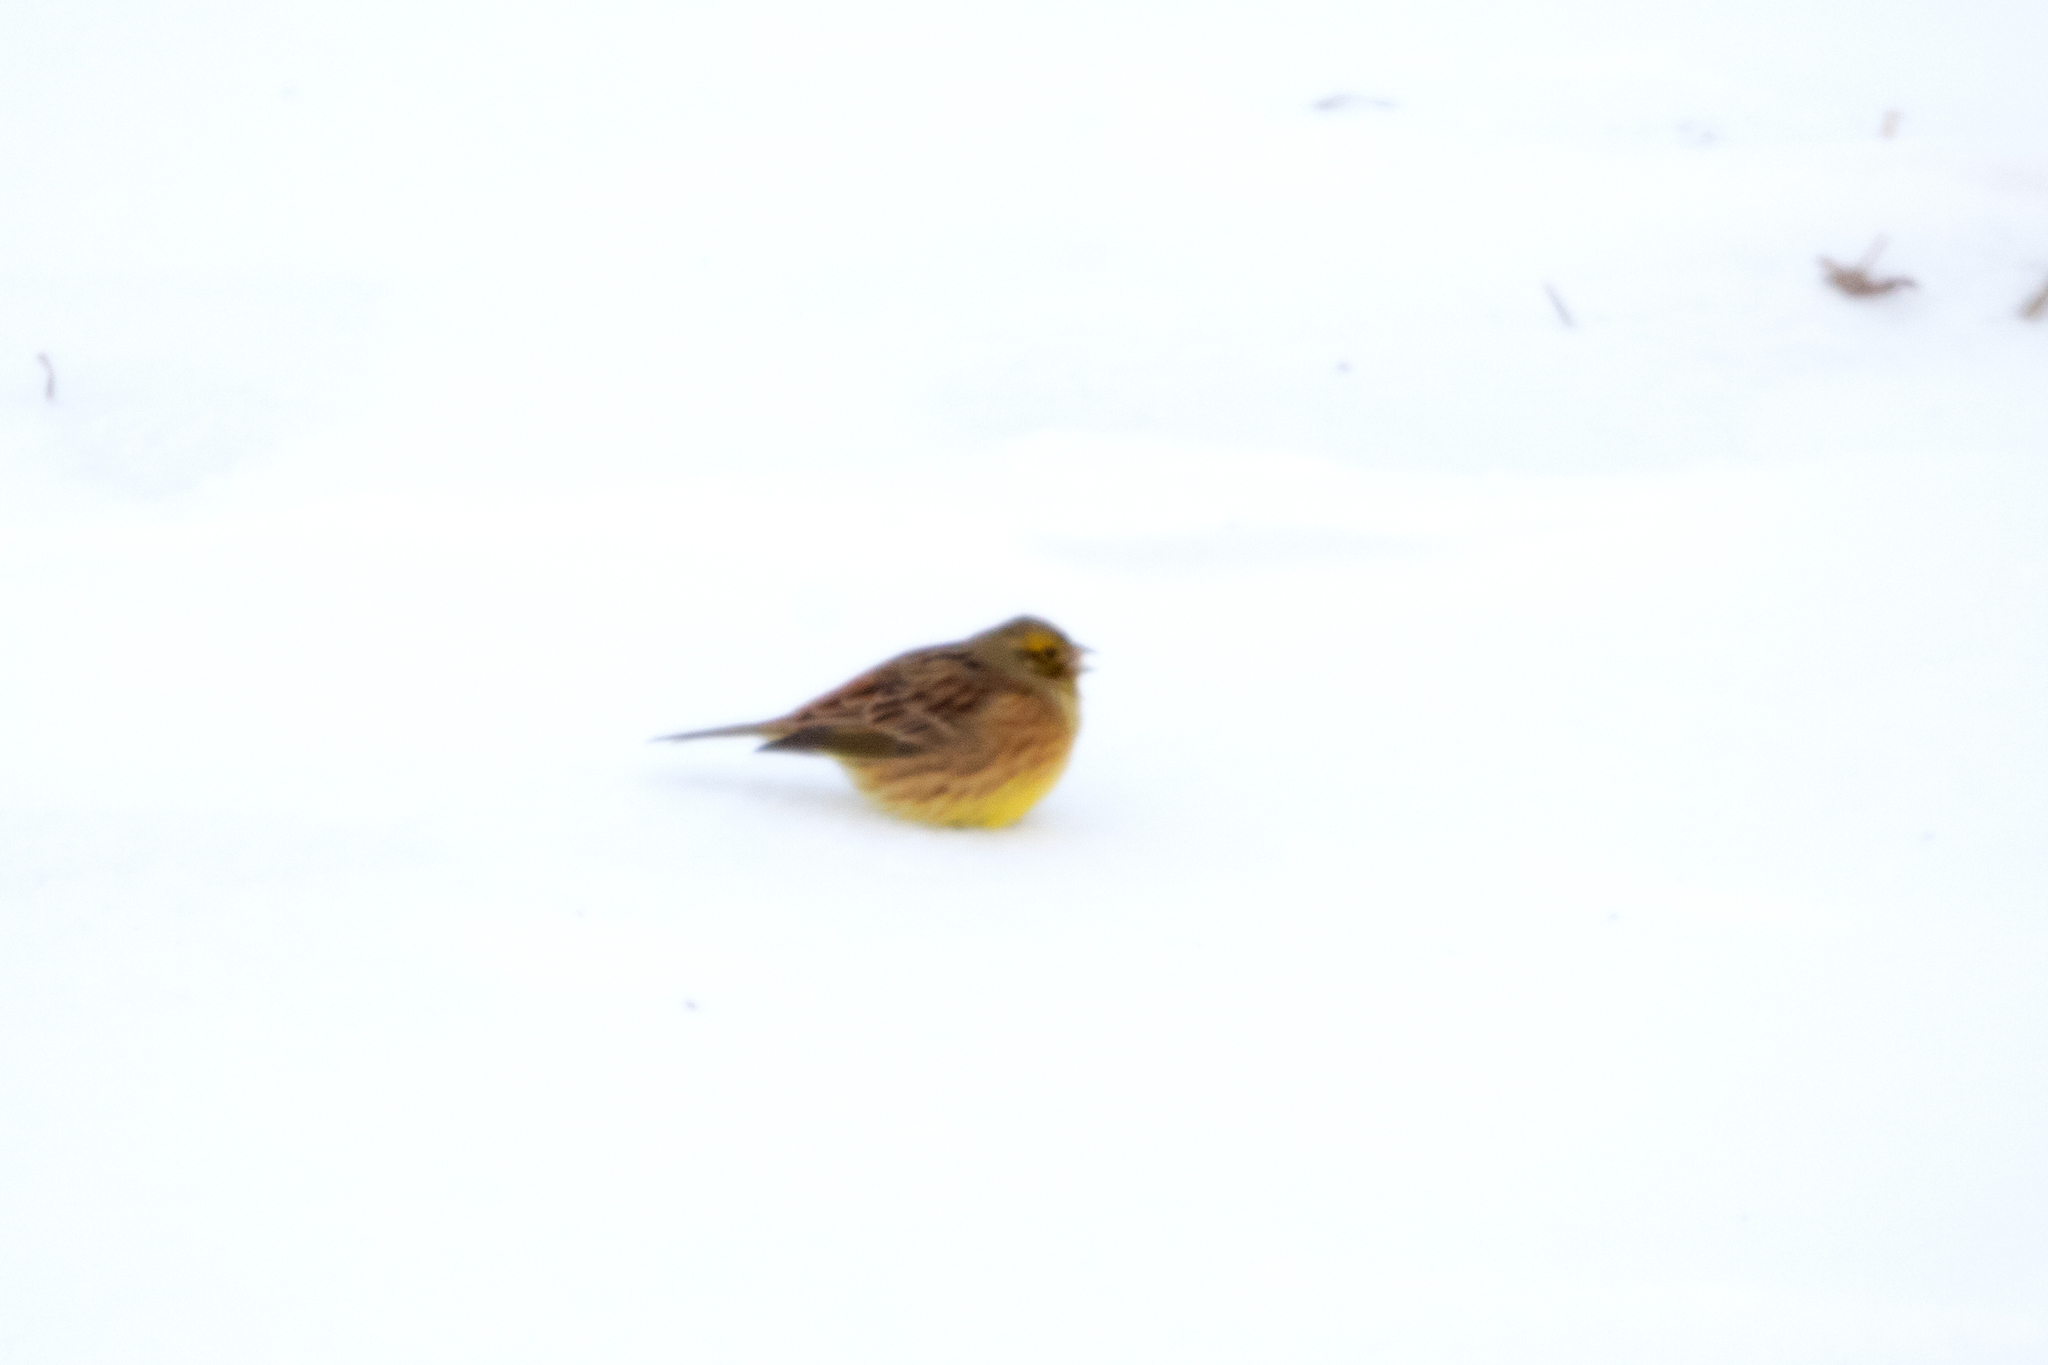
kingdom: Animalia
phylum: Chordata
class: Aves
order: Passeriformes
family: Emberizidae
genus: Emberiza
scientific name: Emberiza citrinella
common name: Yellowhammer
